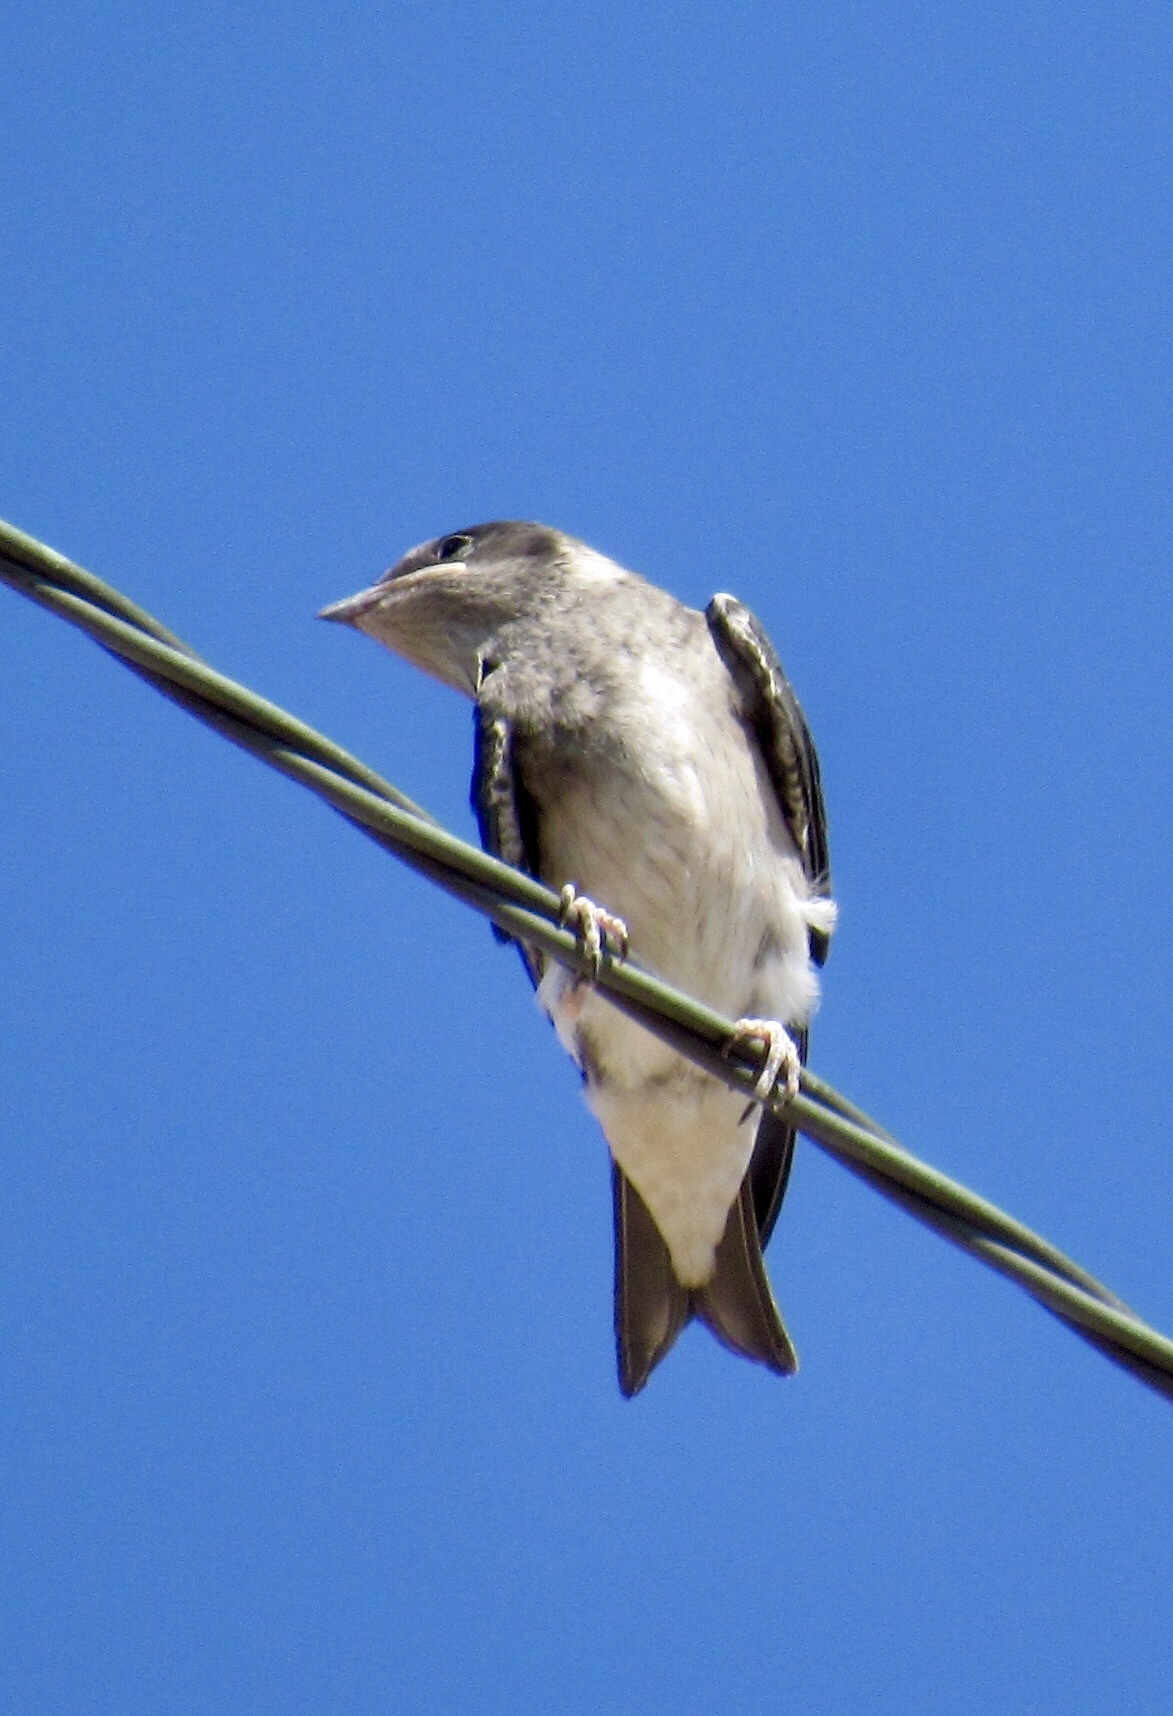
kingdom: Animalia
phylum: Chordata
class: Aves
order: Passeriformes
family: Hirundinidae
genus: Progne
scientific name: Progne subis
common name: Purple martin
